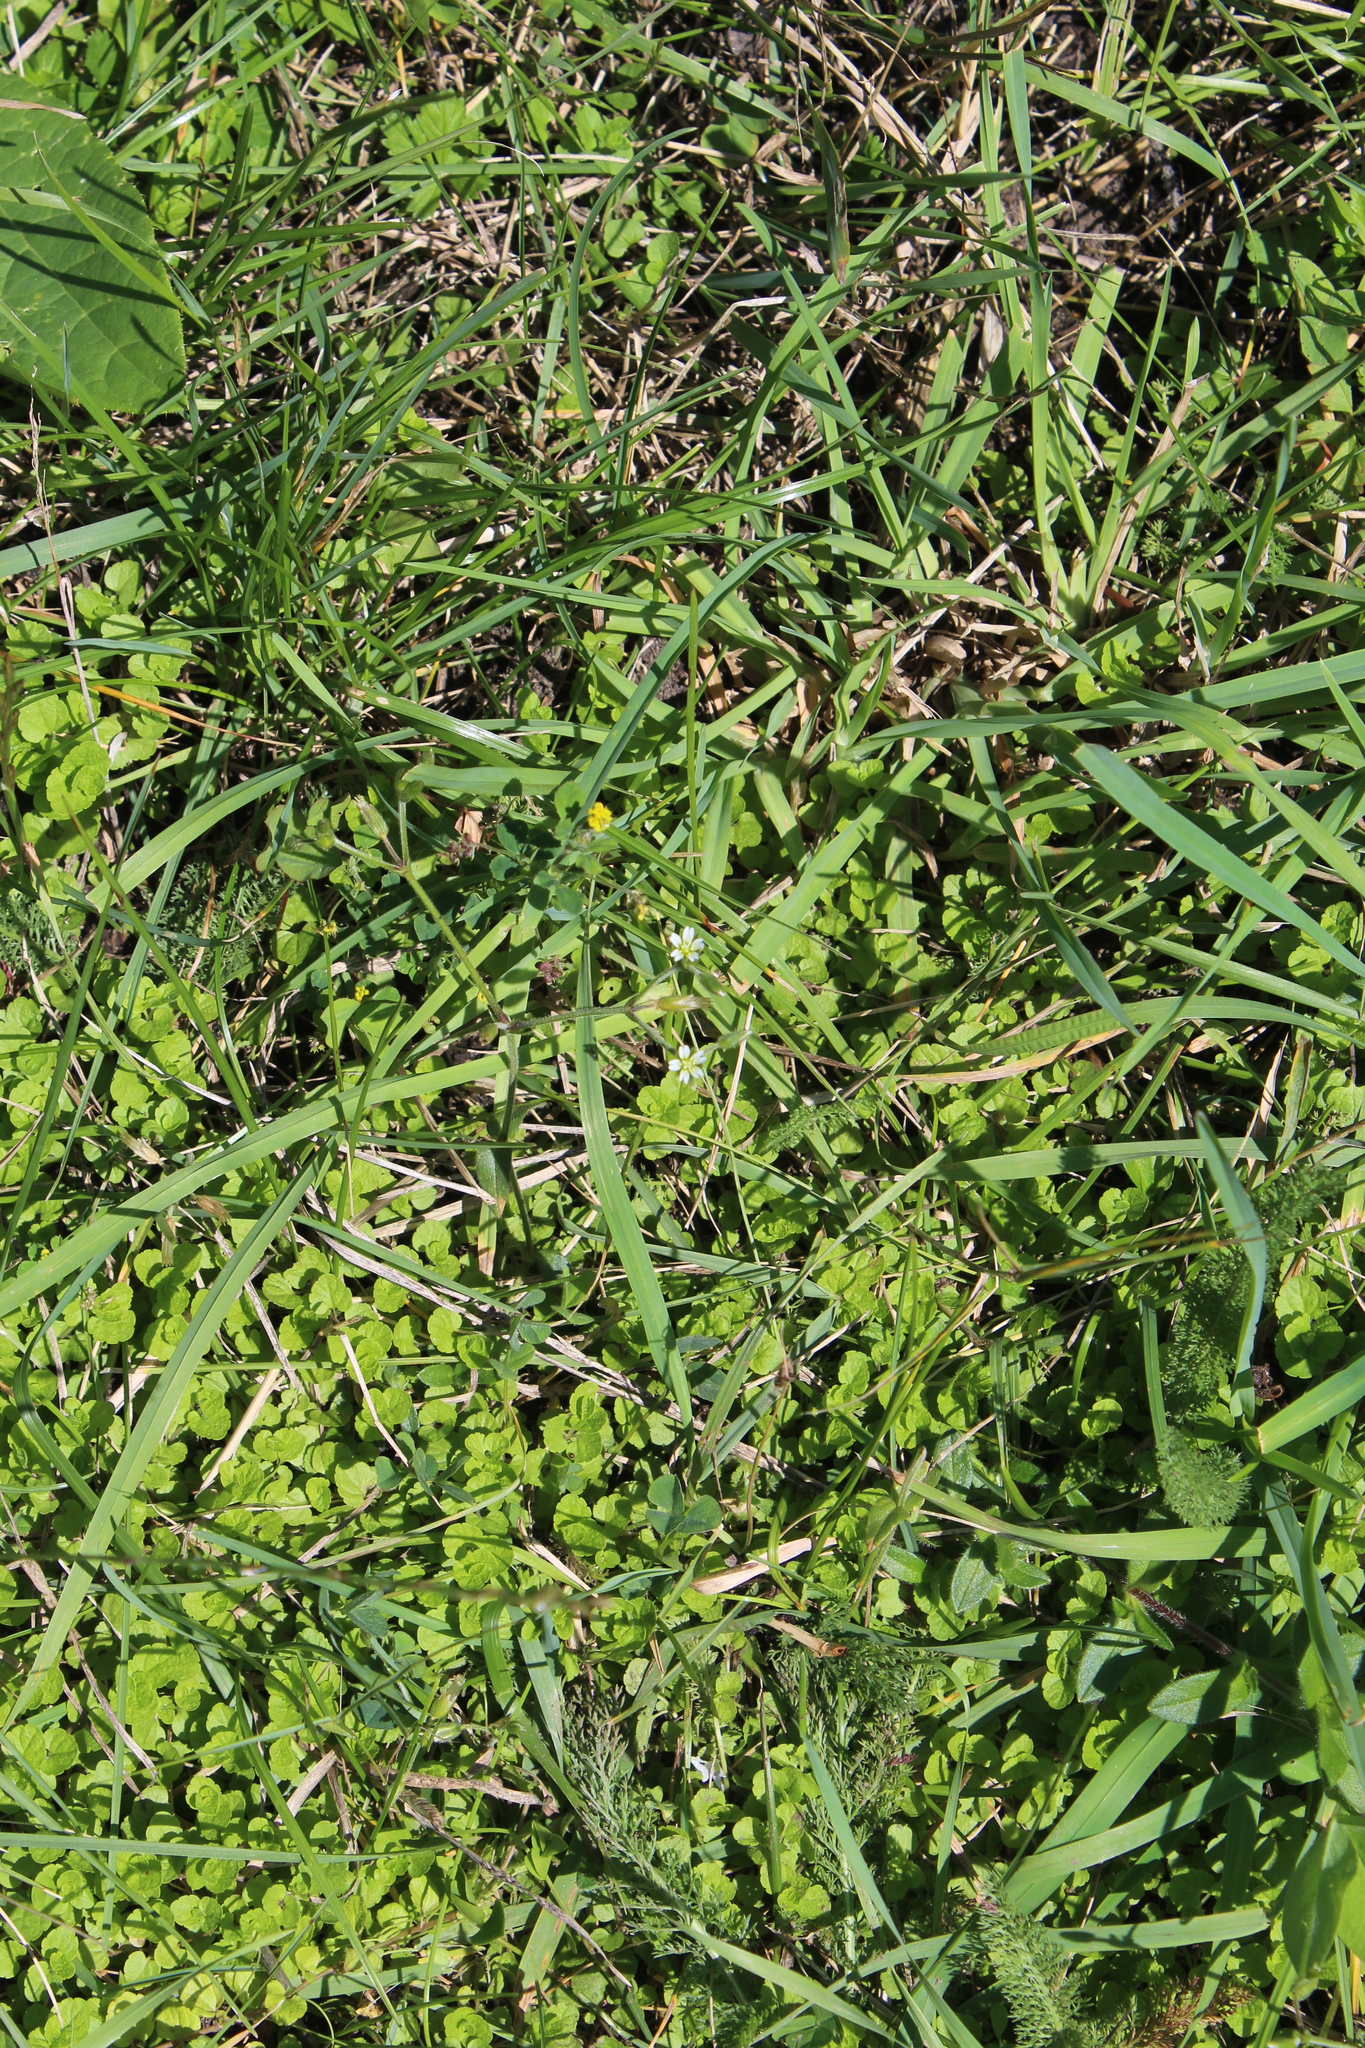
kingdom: Plantae
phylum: Tracheophyta
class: Magnoliopsida
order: Caryophyllales
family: Caryophyllaceae
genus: Cerastium
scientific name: Cerastium holosteoides
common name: Big chickweed
